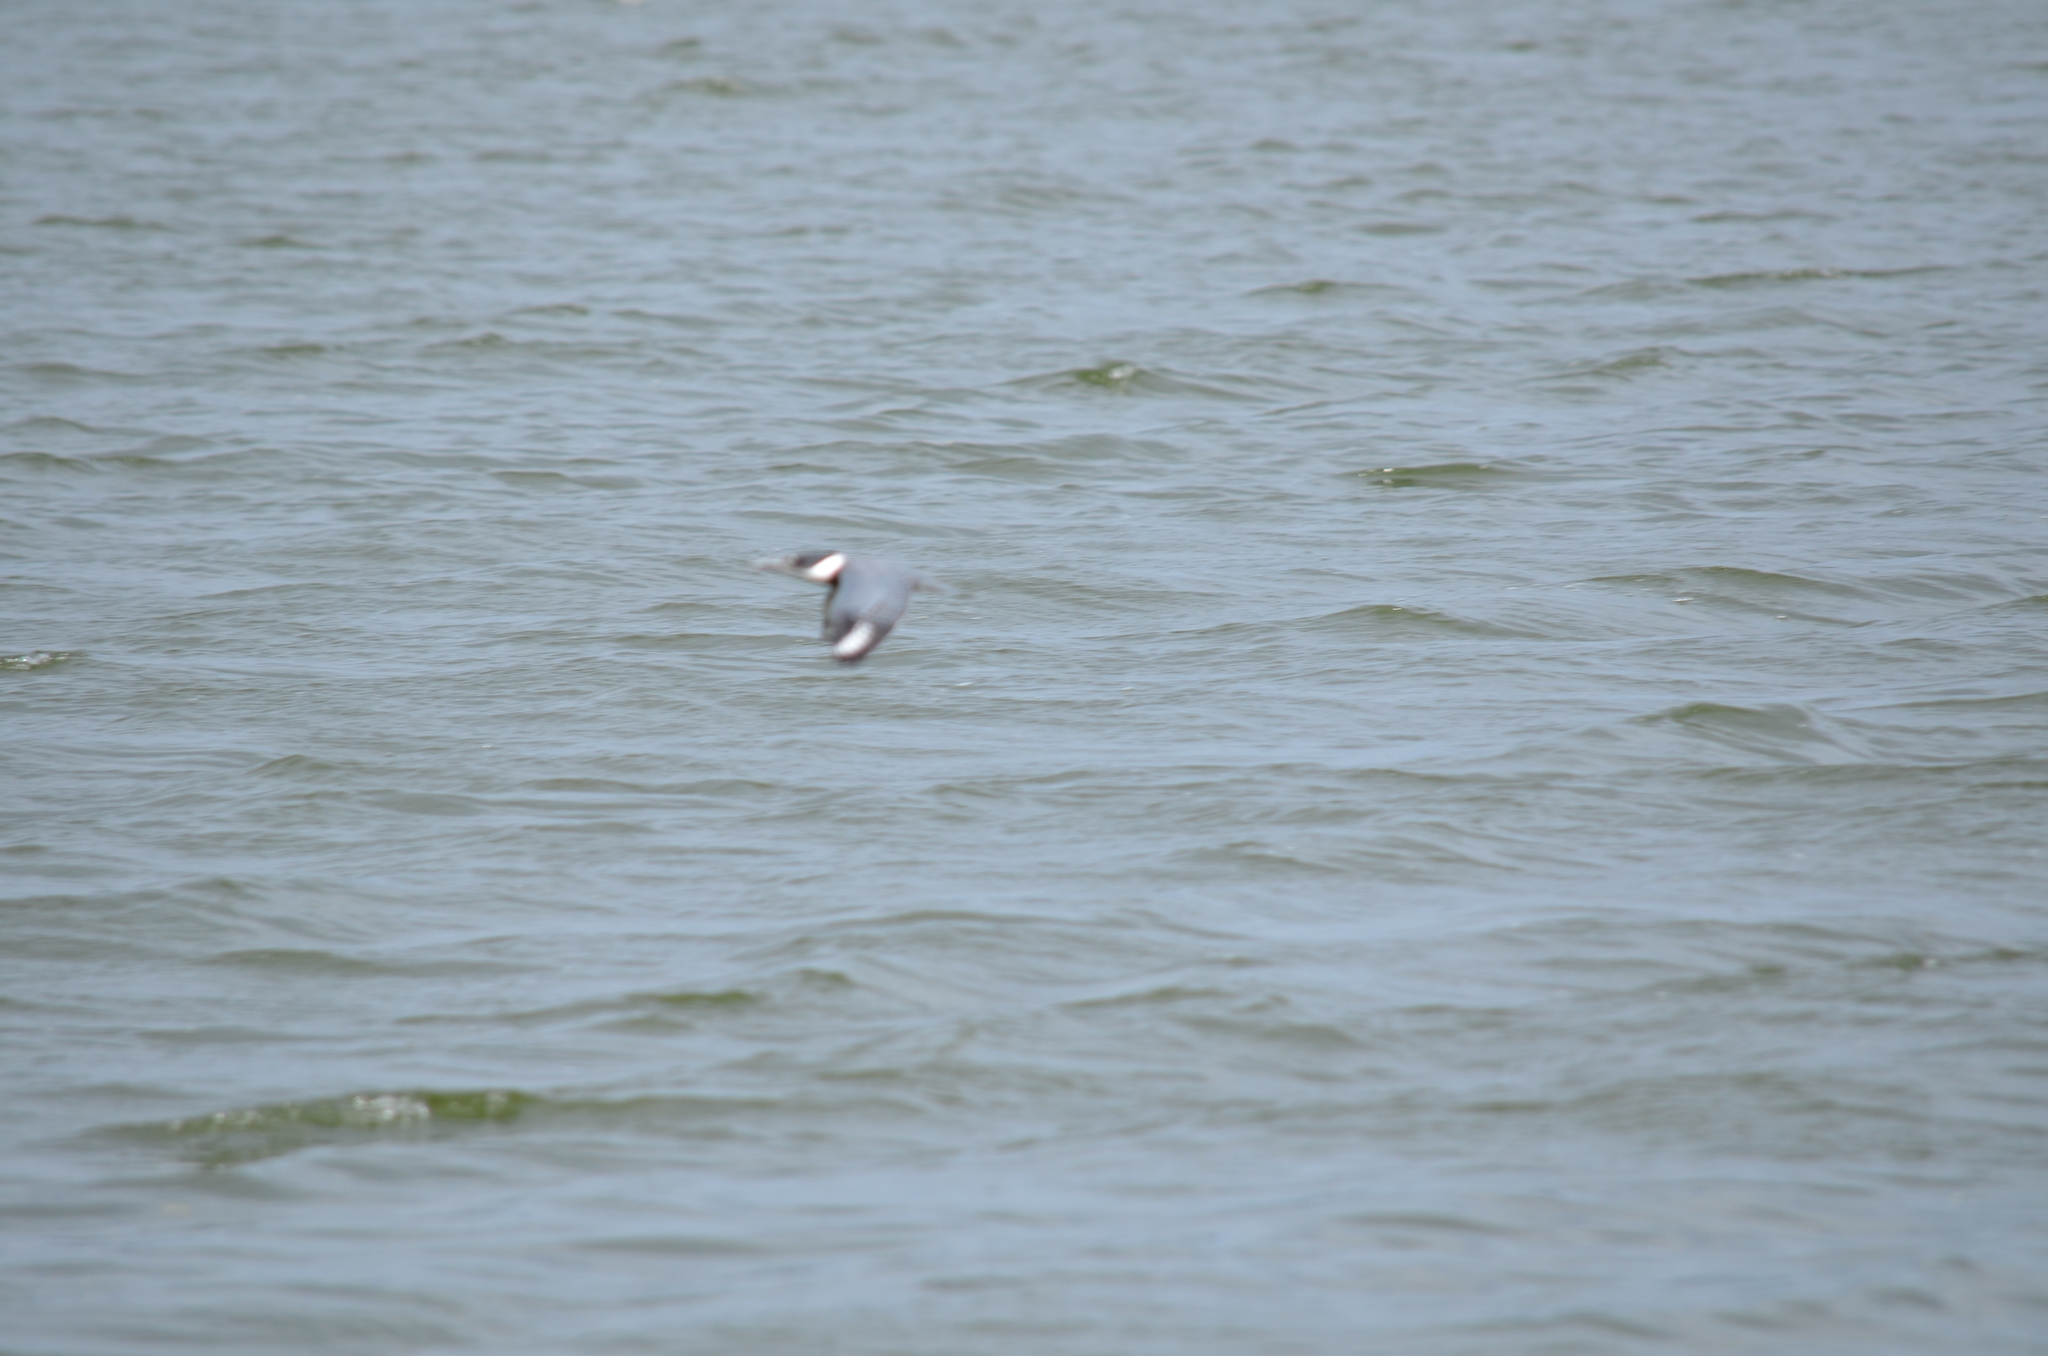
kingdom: Animalia
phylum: Chordata
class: Aves
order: Coraciiformes
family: Alcedinidae
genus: Megaceryle
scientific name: Megaceryle alcyon
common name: Belted kingfisher
